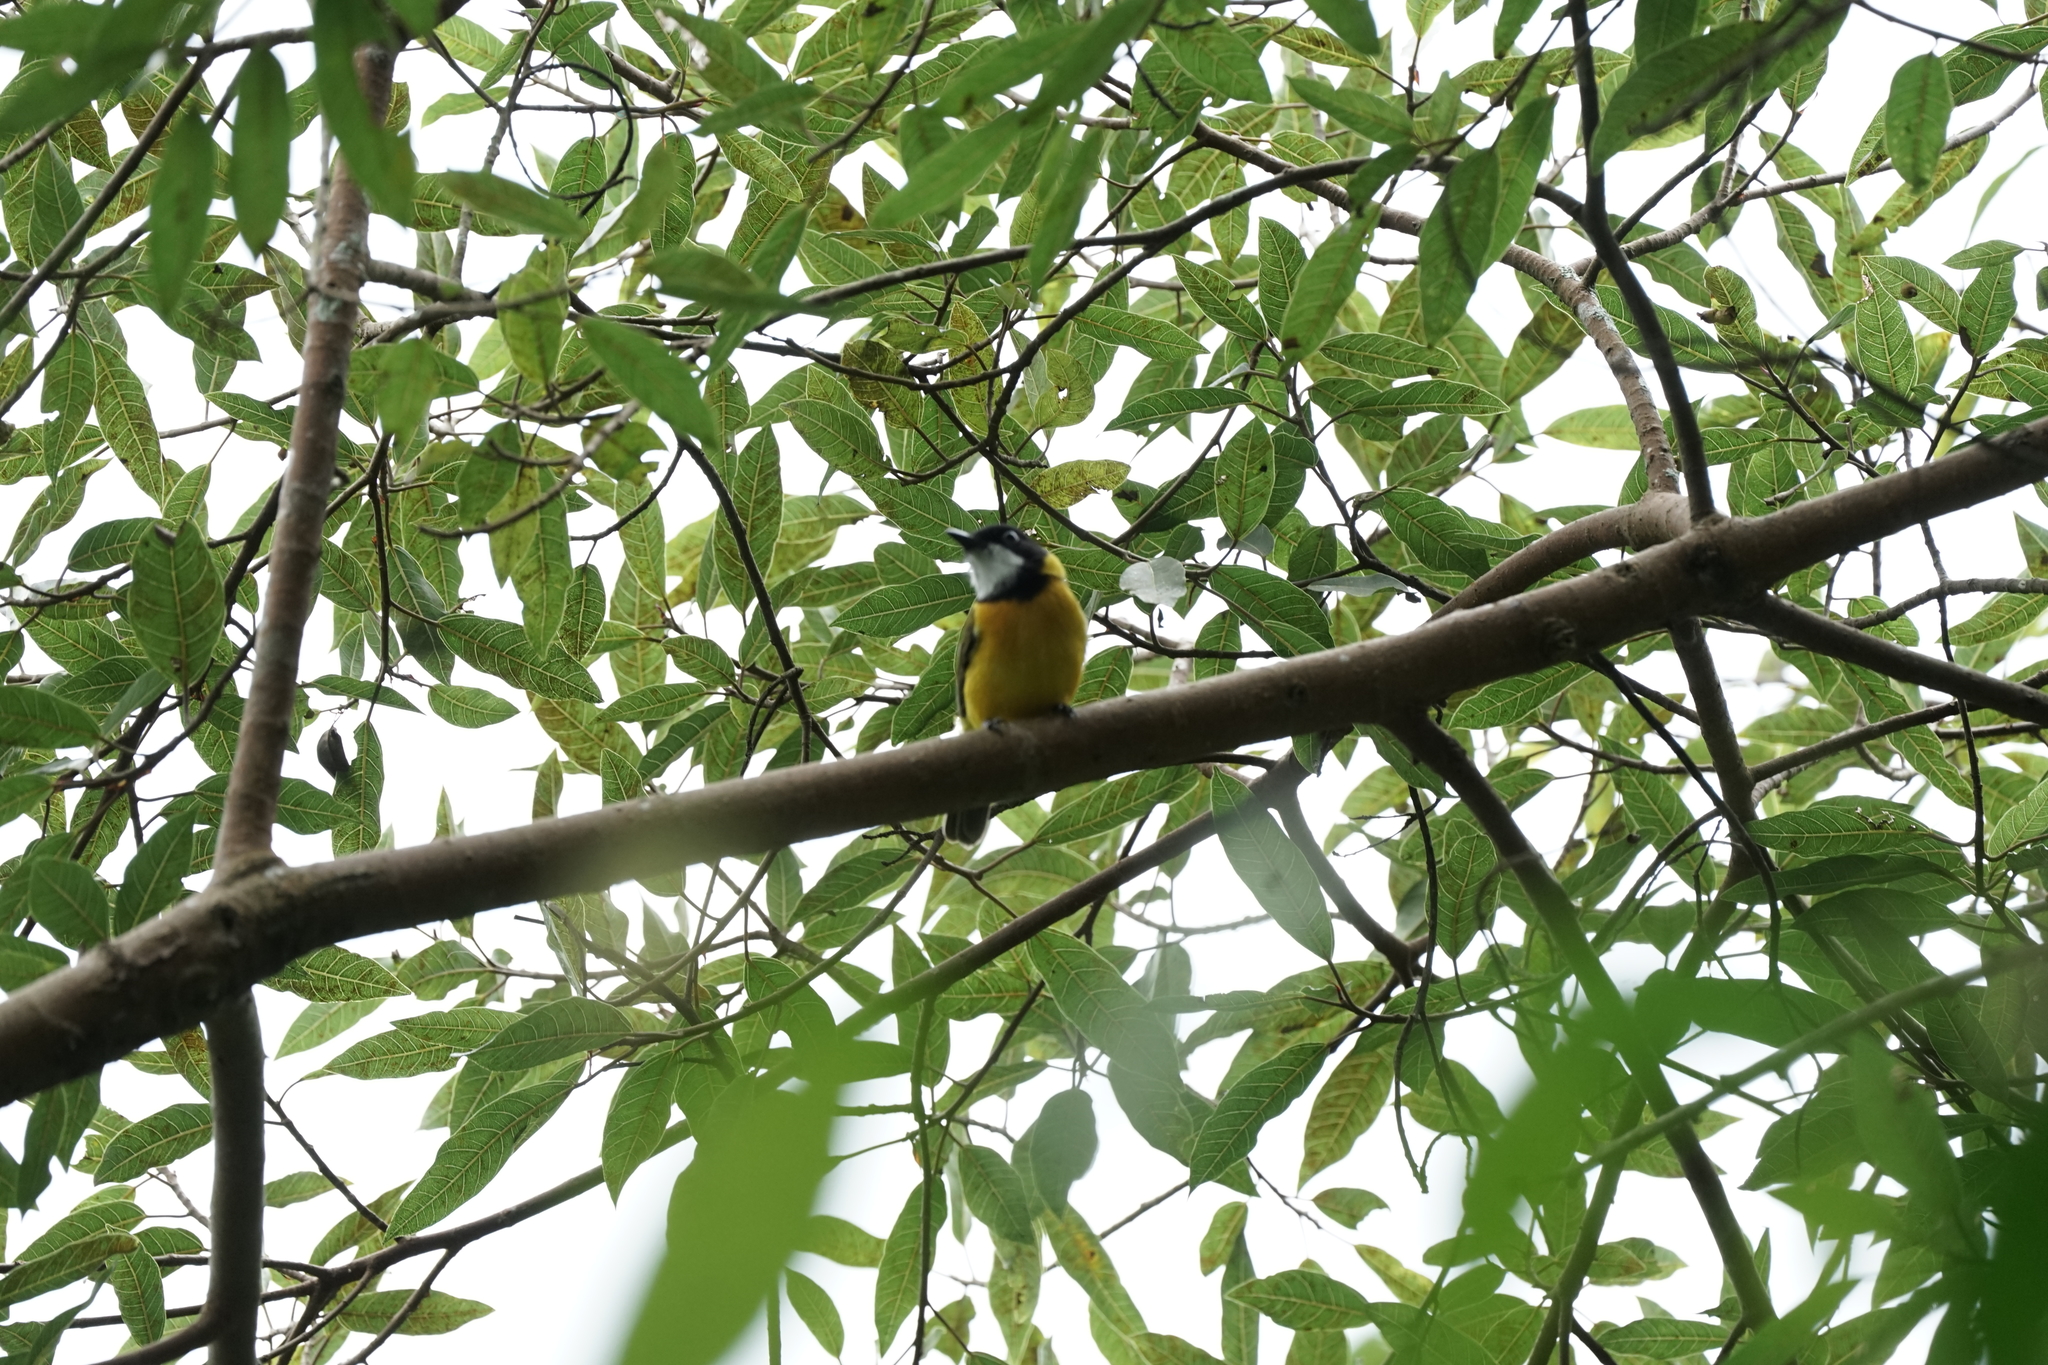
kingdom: Animalia
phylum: Chordata
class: Aves
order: Passeriformes
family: Pachycephalidae
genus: Pachycephala
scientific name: Pachycephala fulvotincta
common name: Rusty-breasted whistler
